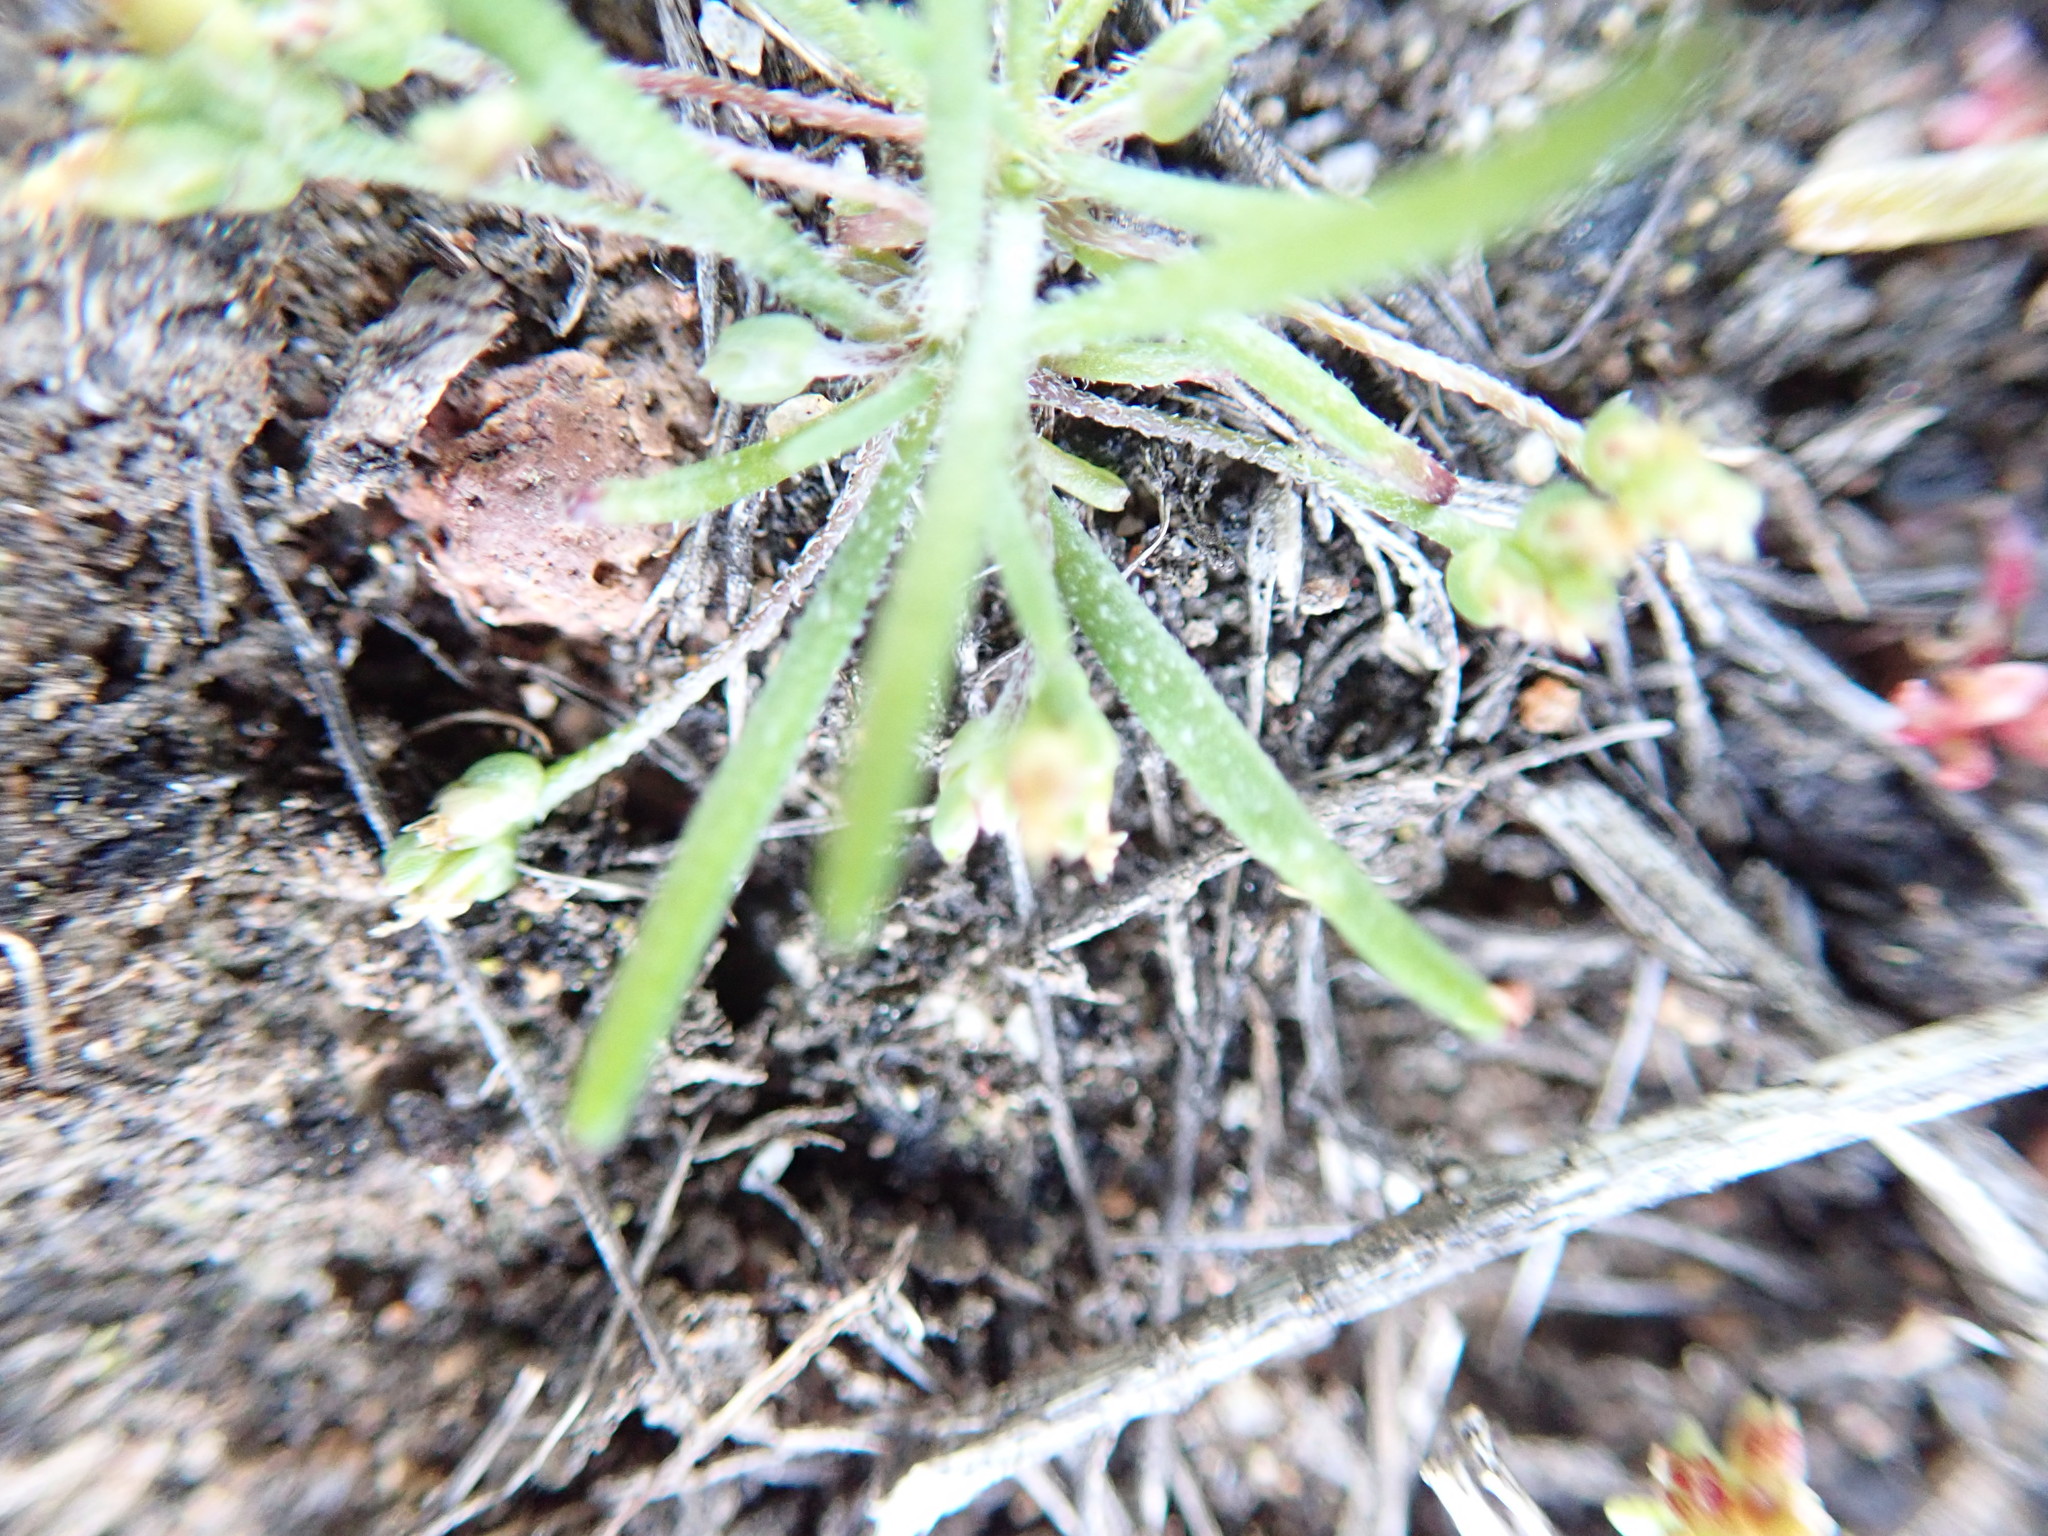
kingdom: Plantae
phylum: Tracheophyta
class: Magnoliopsida
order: Lamiales
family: Plantaginaceae
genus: Plantago
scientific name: Plantago elongata
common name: Linear-leaved plantain
